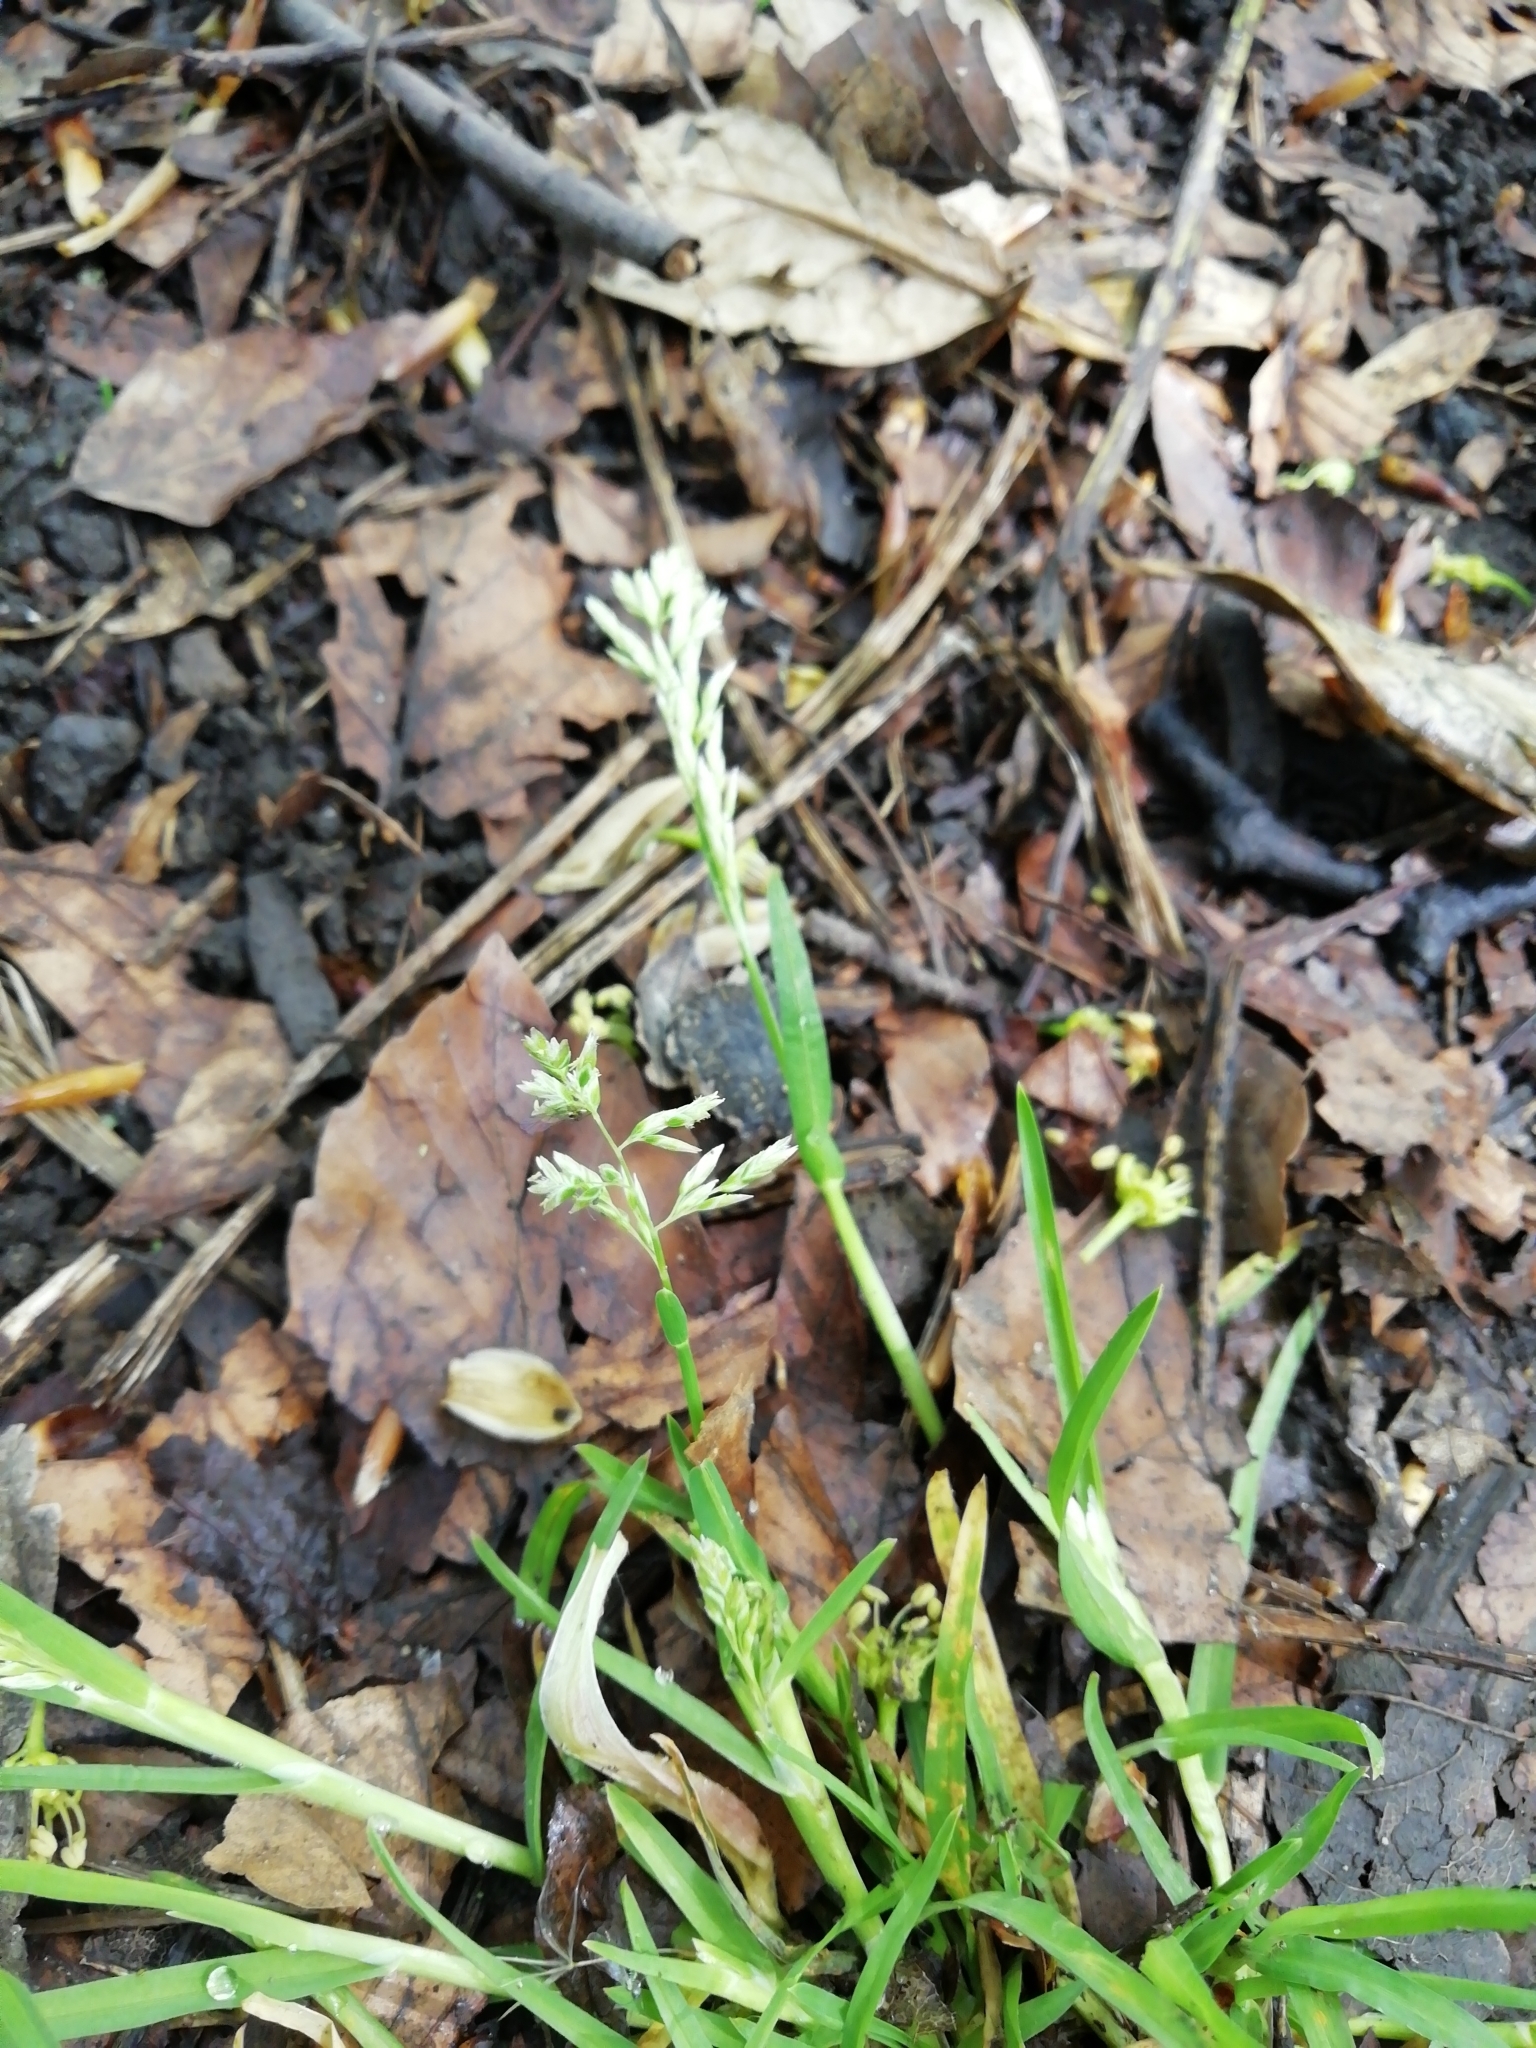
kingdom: Plantae
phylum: Tracheophyta
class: Liliopsida
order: Poales
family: Poaceae
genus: Poa
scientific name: Poa annua
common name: Annual bluegrass
